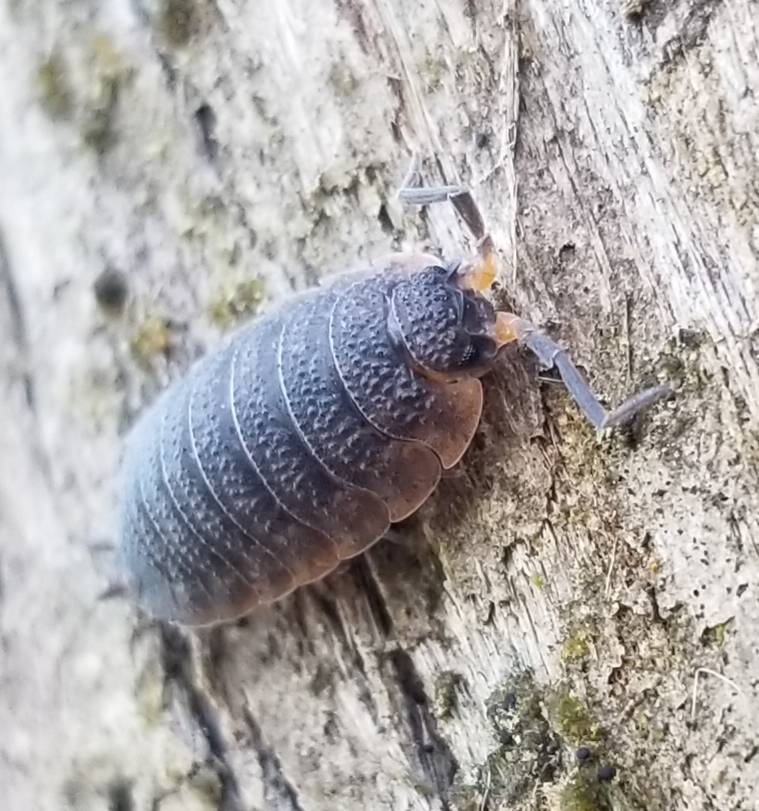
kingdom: Animalia
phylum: Arthropoda
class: Malacostraca
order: Isopoda
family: Porcellionidae
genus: Porcellio
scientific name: Porcellio scaber
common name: Common rough woodlouse
